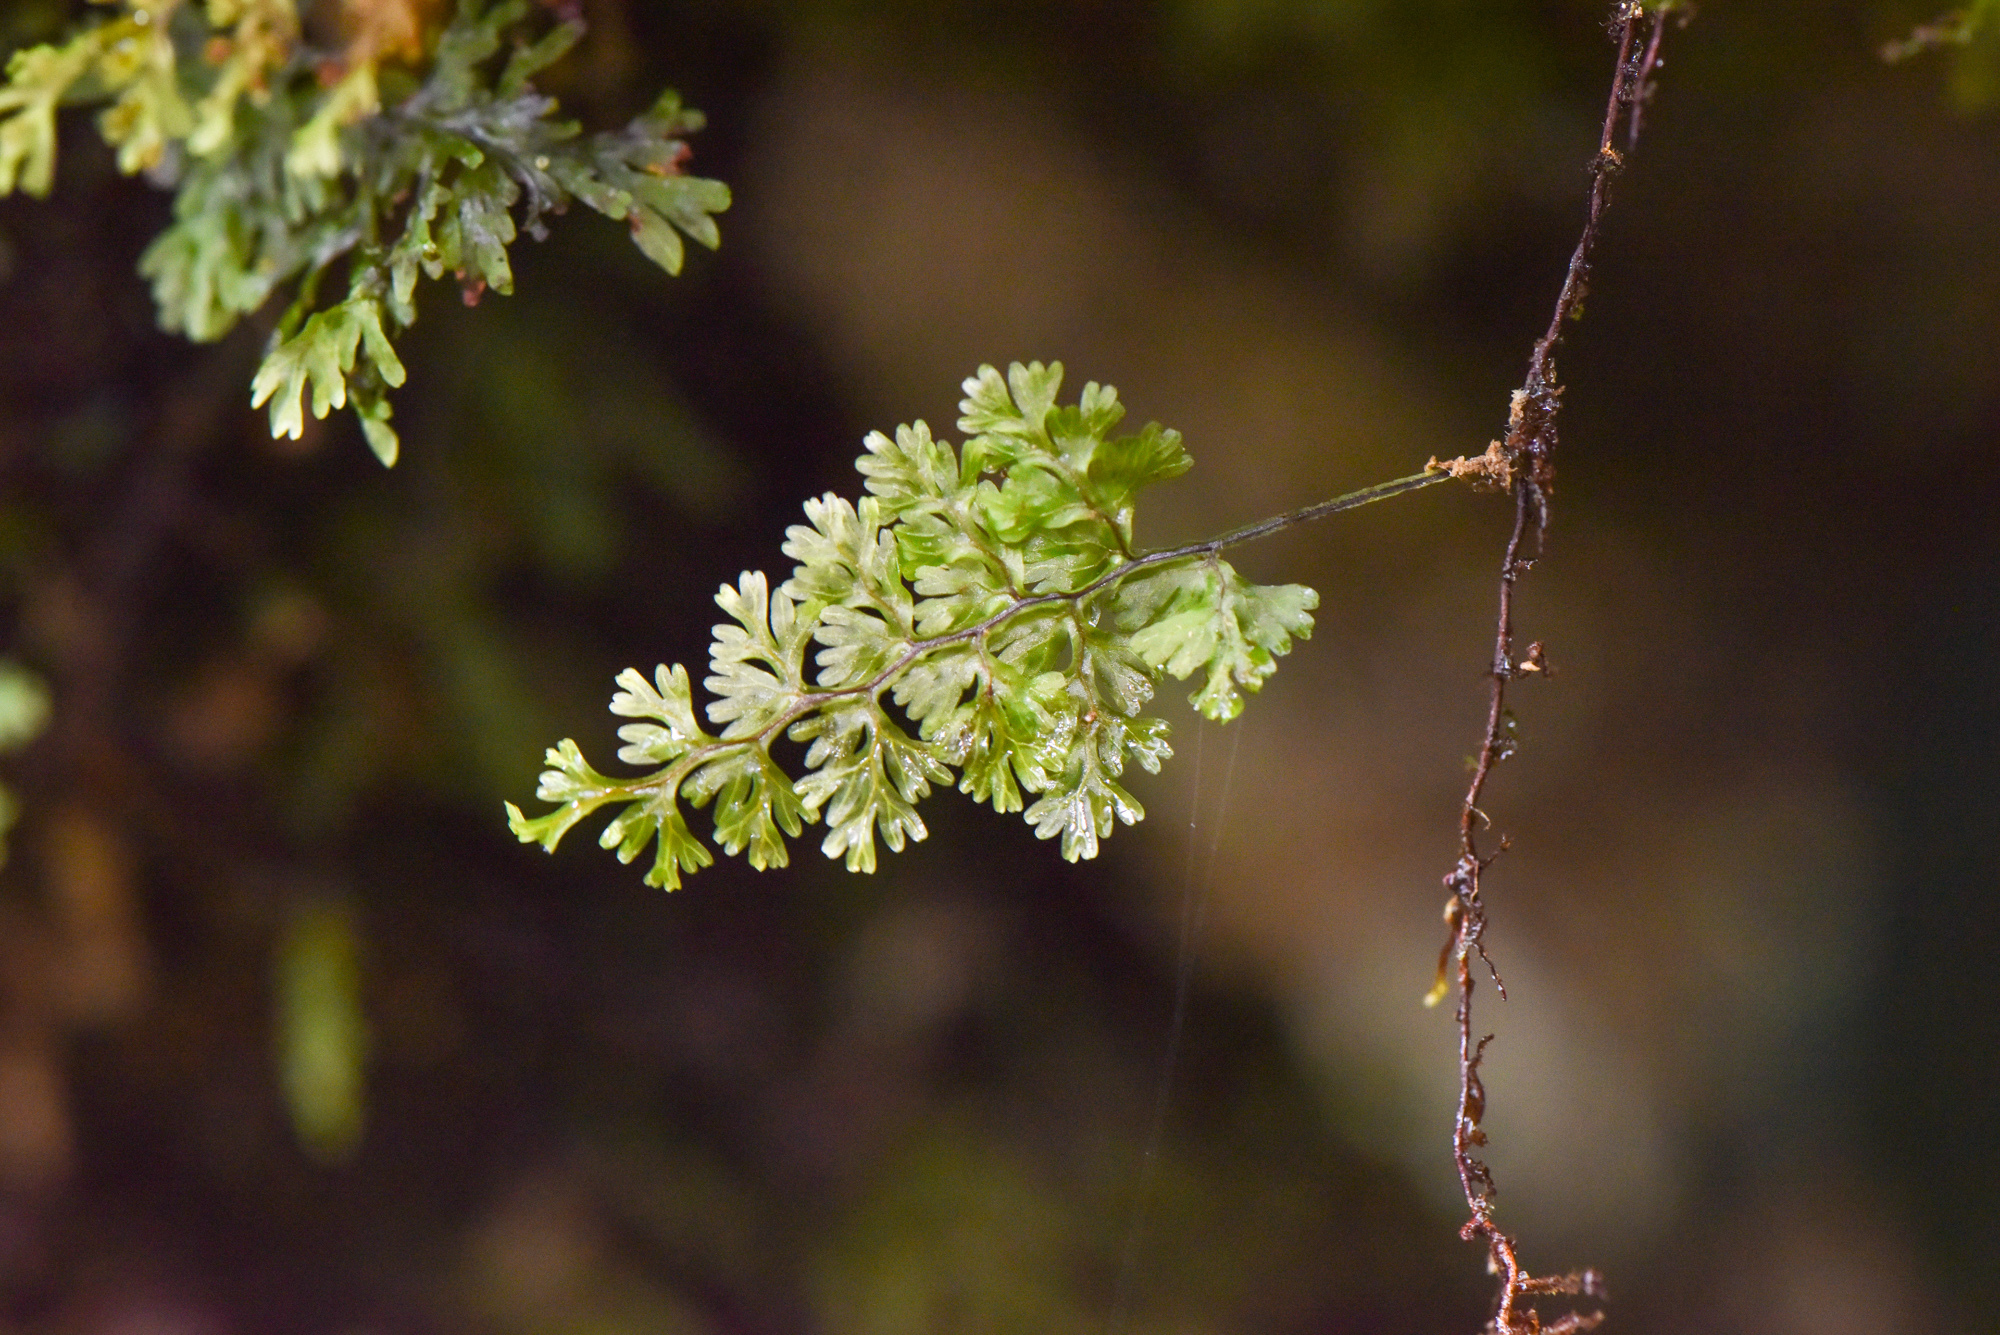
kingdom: Plantae
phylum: Tracheophyta
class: Polypodiopsida
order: Hymenophyllales
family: Hymenophyllaceae
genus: Callistopteris
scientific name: Callistopteris polyantha
